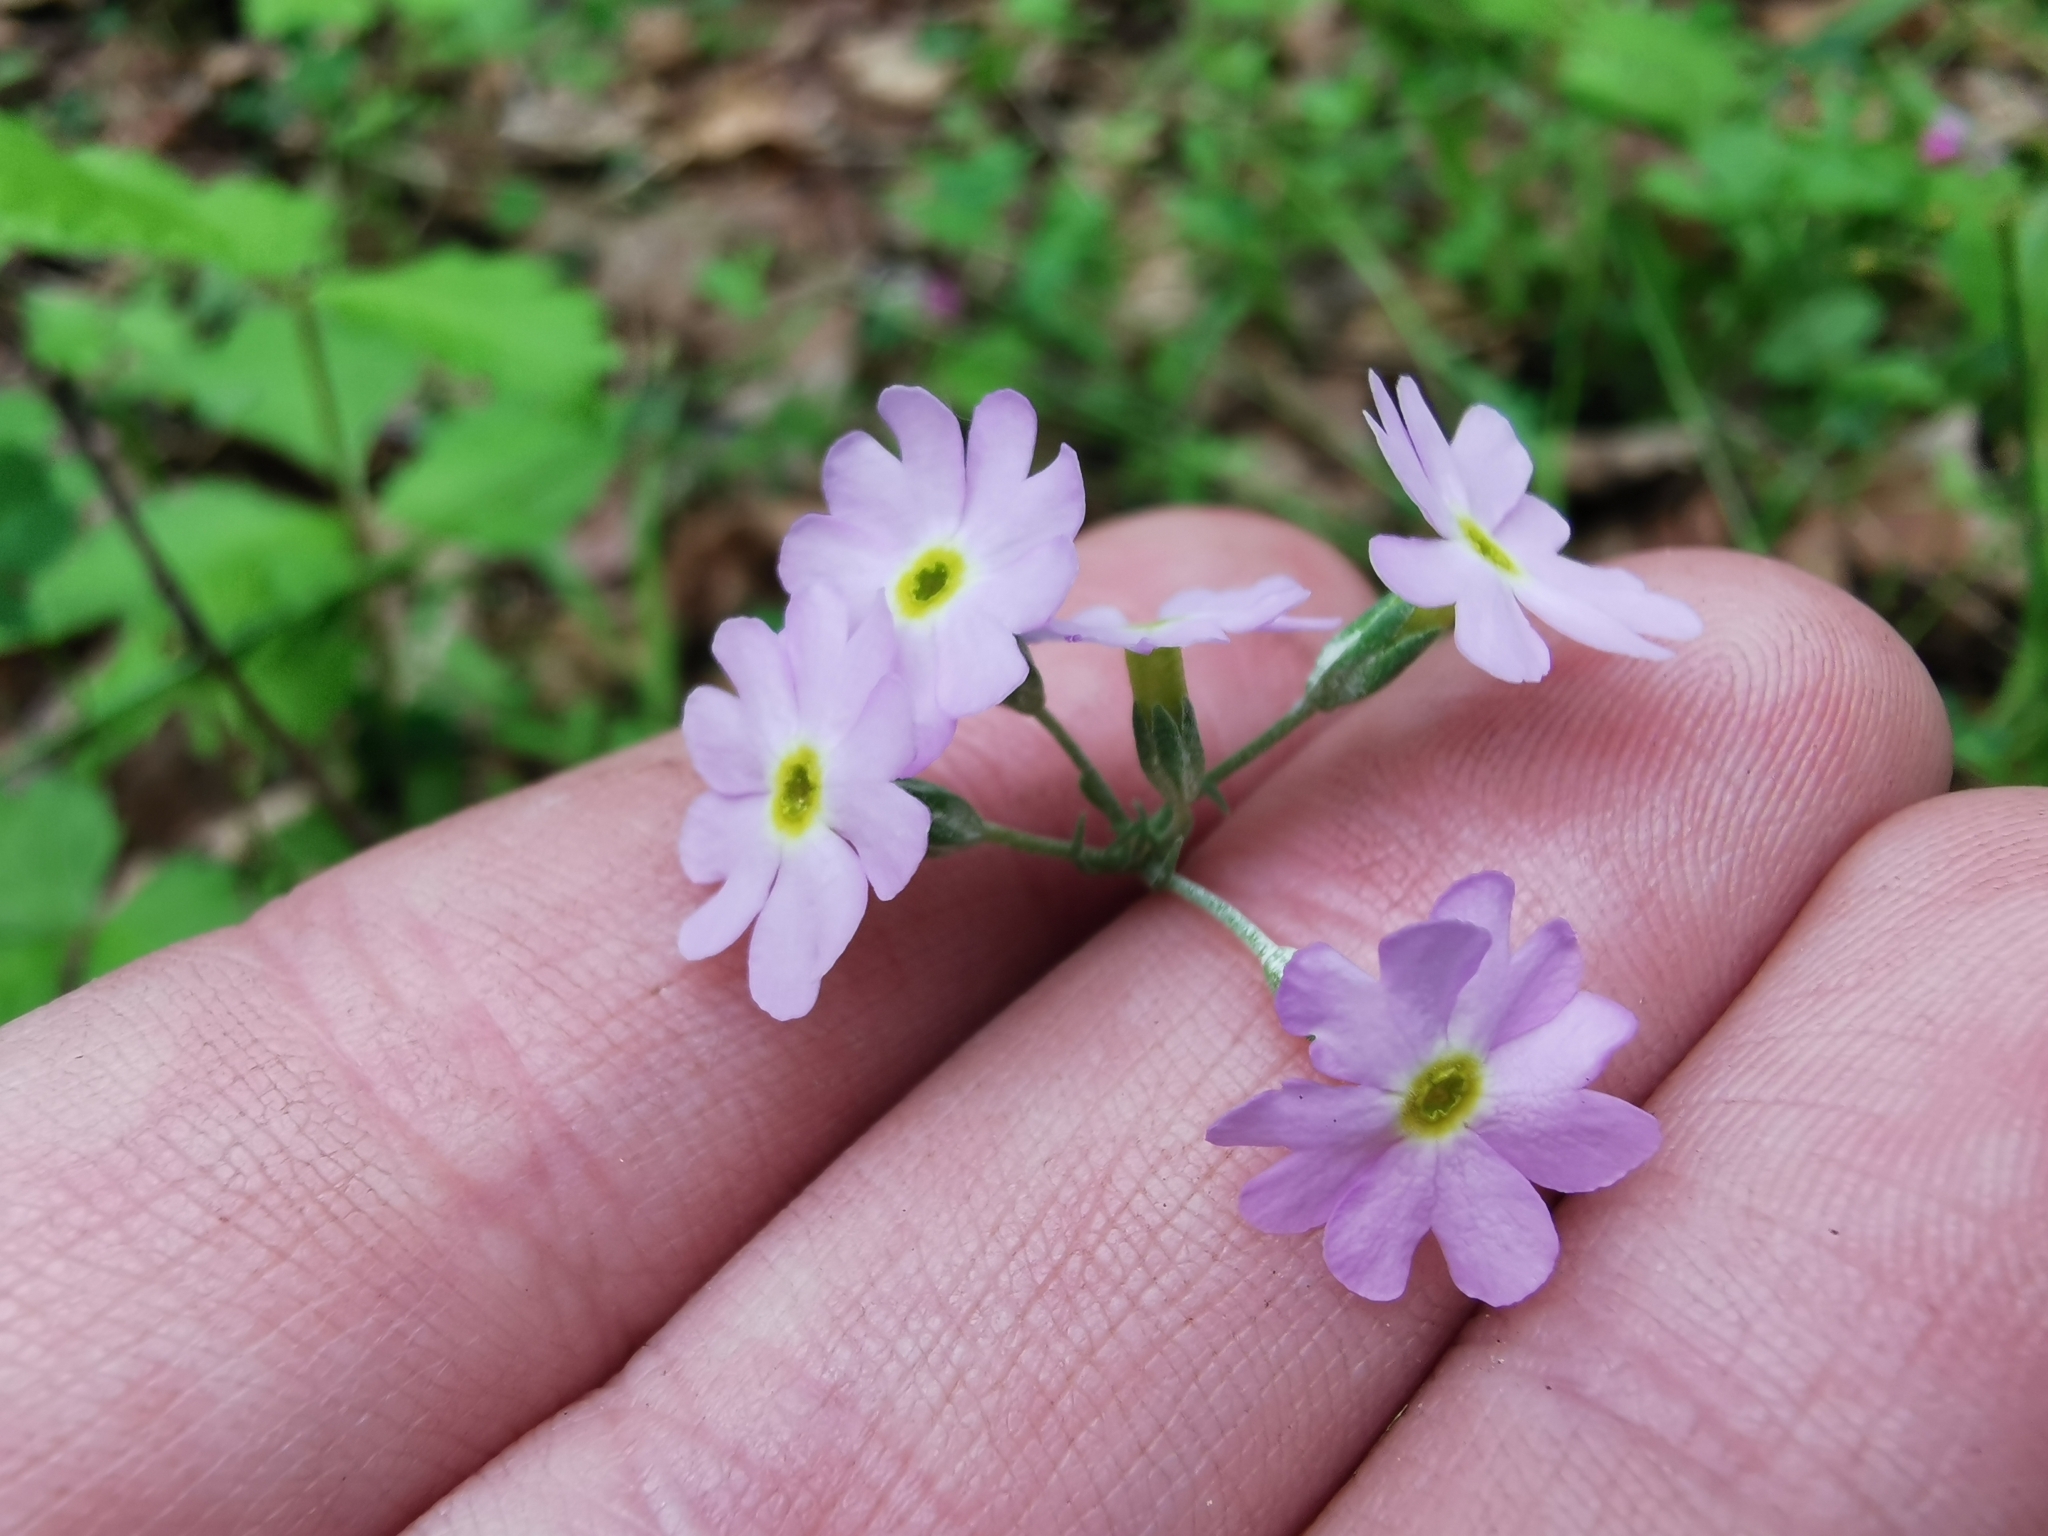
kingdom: Plantae
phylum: Tracheophyta
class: Magnoliopsida
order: Ericales
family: Primulaceae
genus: Primula
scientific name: Primula farinosa
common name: Bird's-eye primrose
